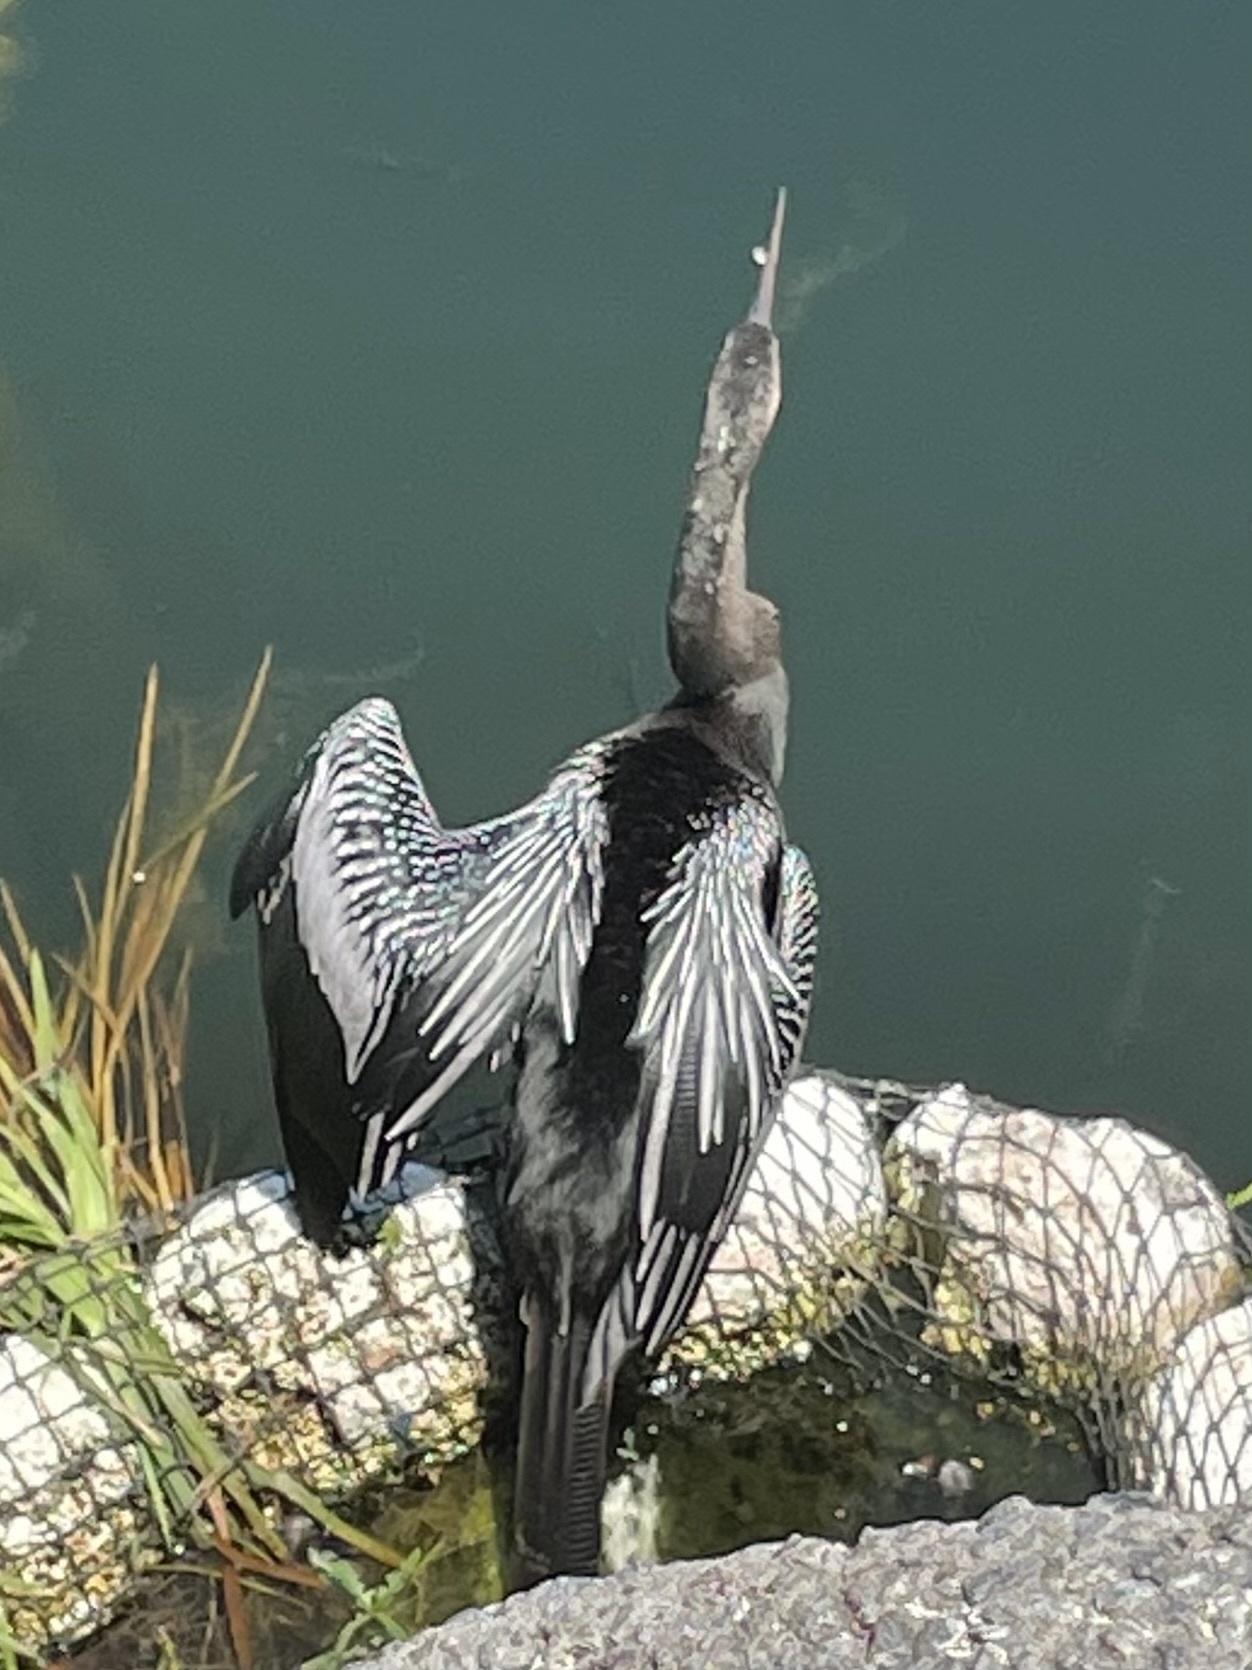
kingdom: Animalia
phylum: Chordata
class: Aves
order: Suliformes
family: Anhingidae
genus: Anhinga
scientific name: Anhinga anhinga
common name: Anhinga
